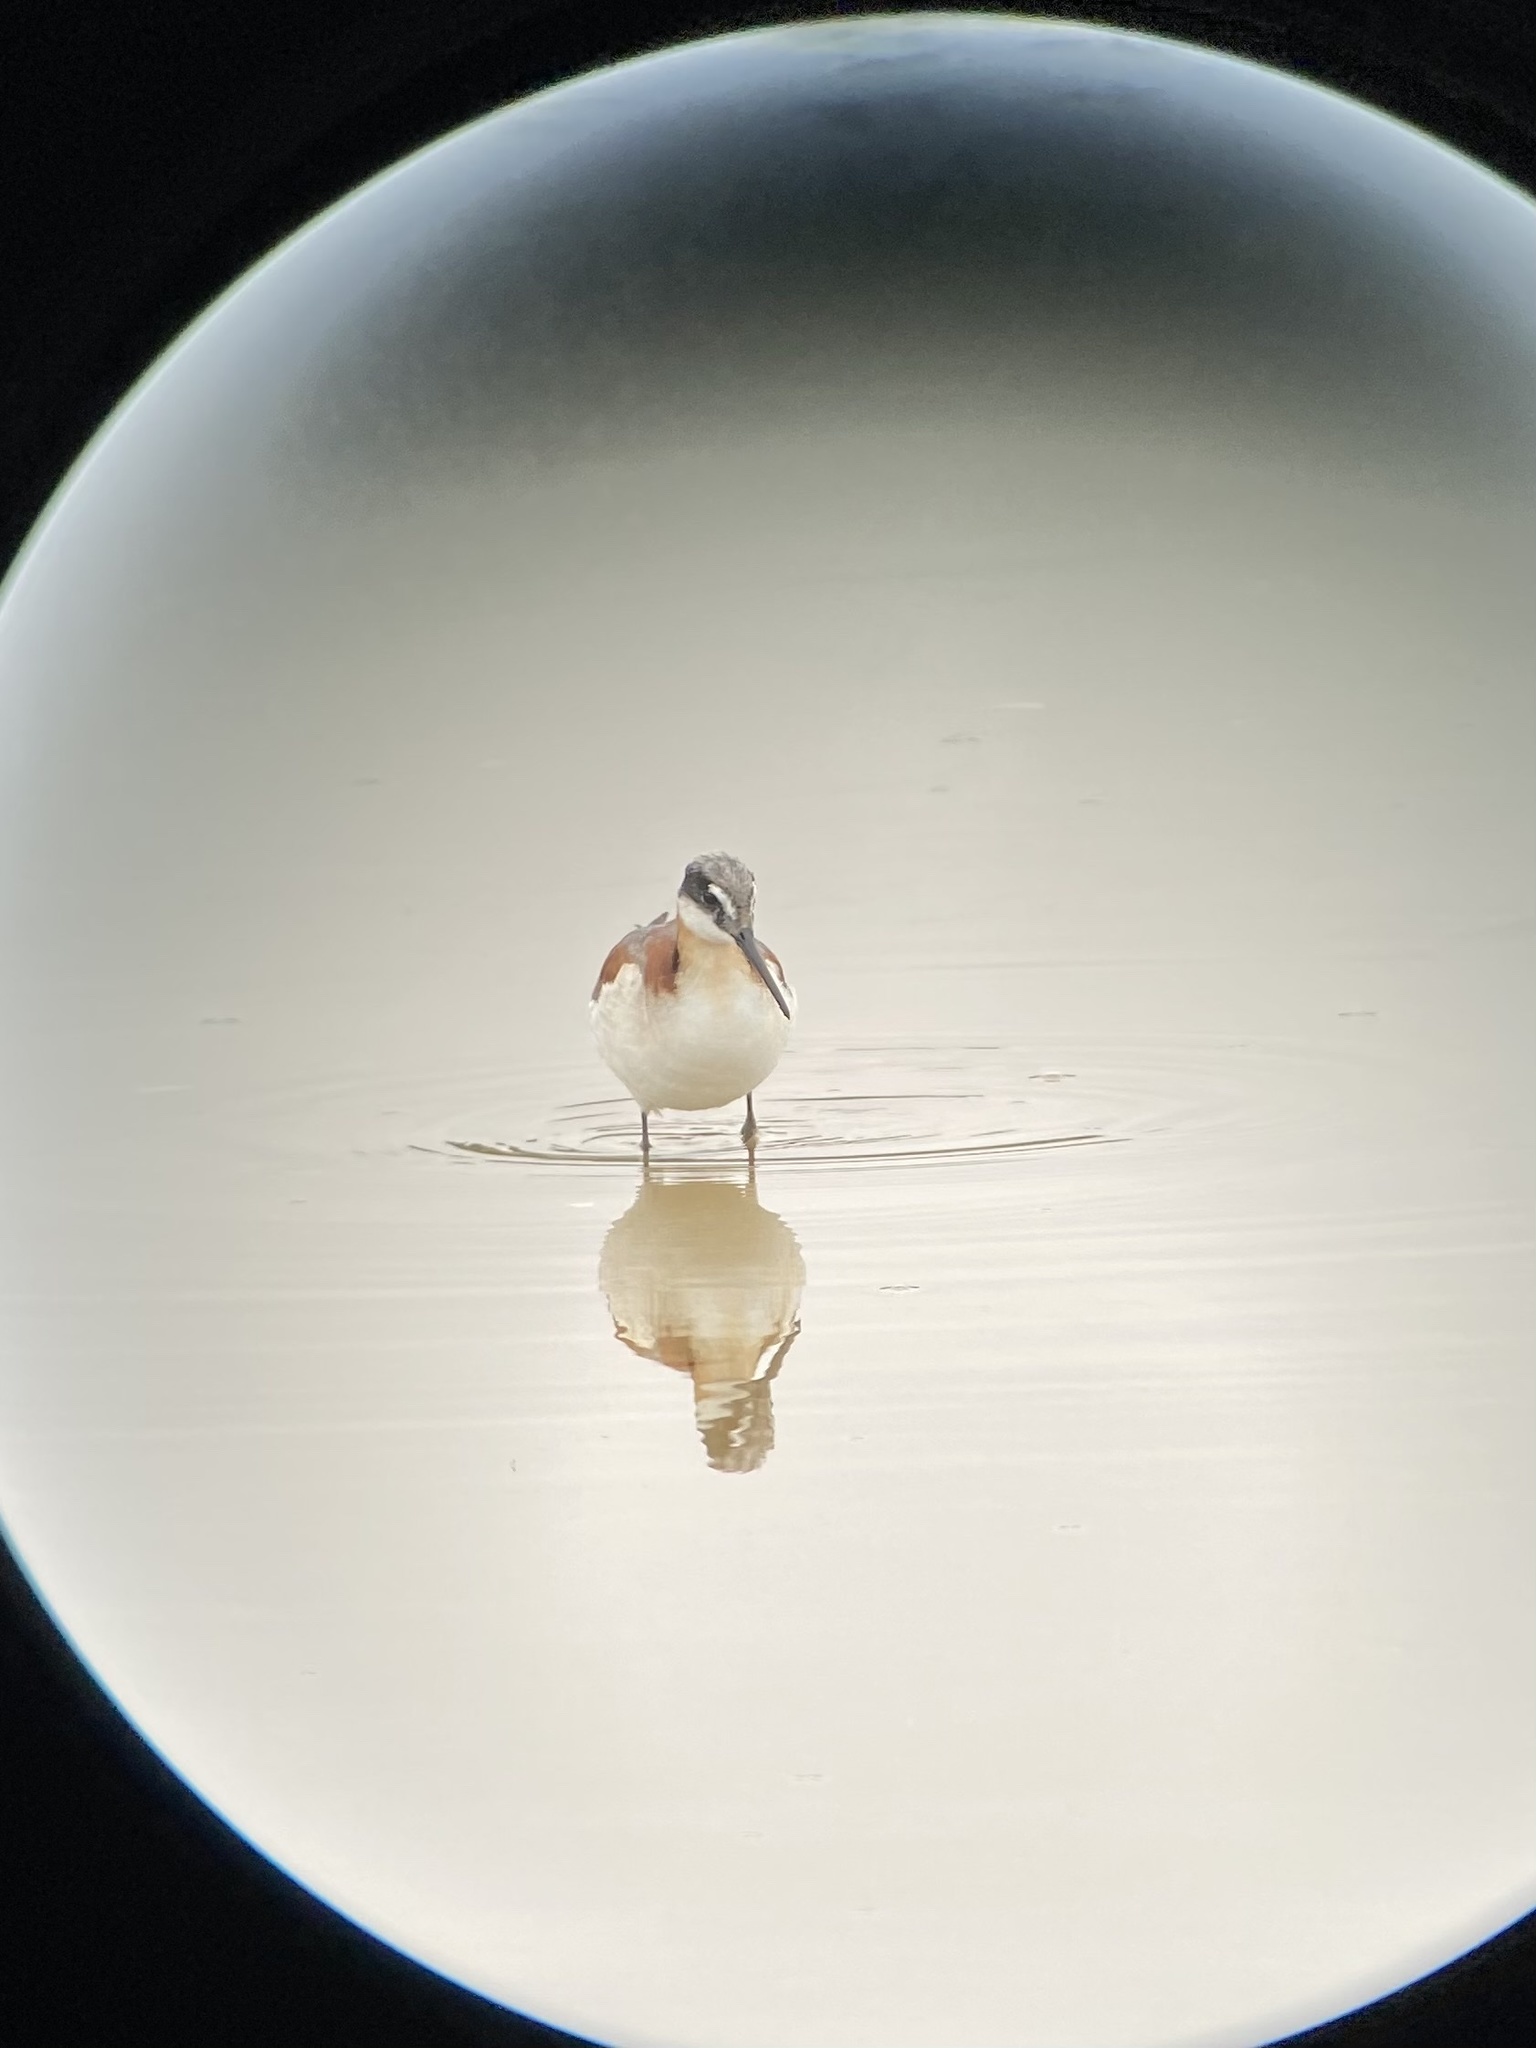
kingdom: Animalia
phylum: Chordata
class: Aves
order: Charadriiformes
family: Scolopacidae
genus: Phalaropus
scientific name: Phalaropus tricolor
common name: Wilson's phalarope
